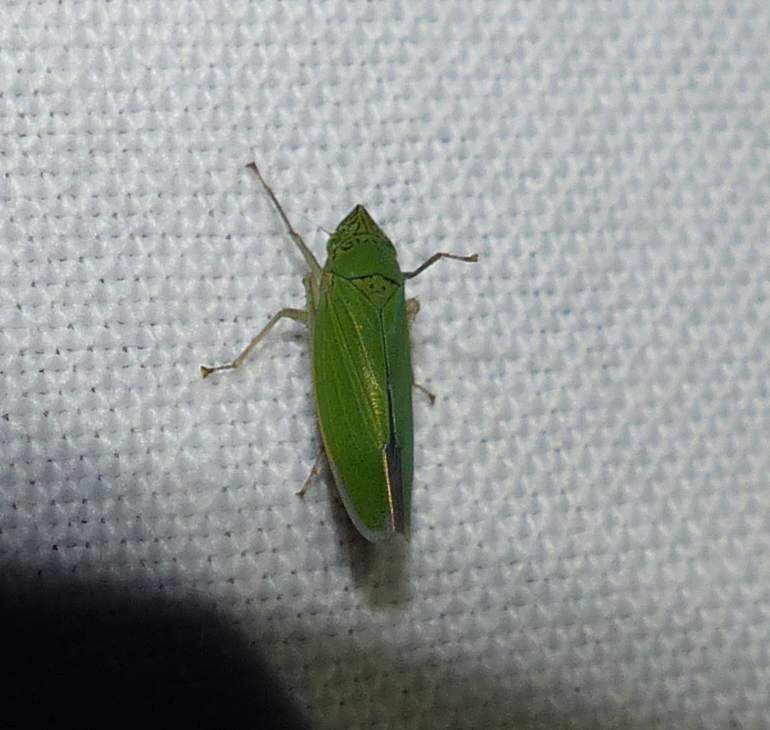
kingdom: Animalia
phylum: Arthropoda
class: Insecta
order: Hemiptera
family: Cicadellidae
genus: Draeculacephala
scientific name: Draeculacephala inscripta
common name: Leafhopper
